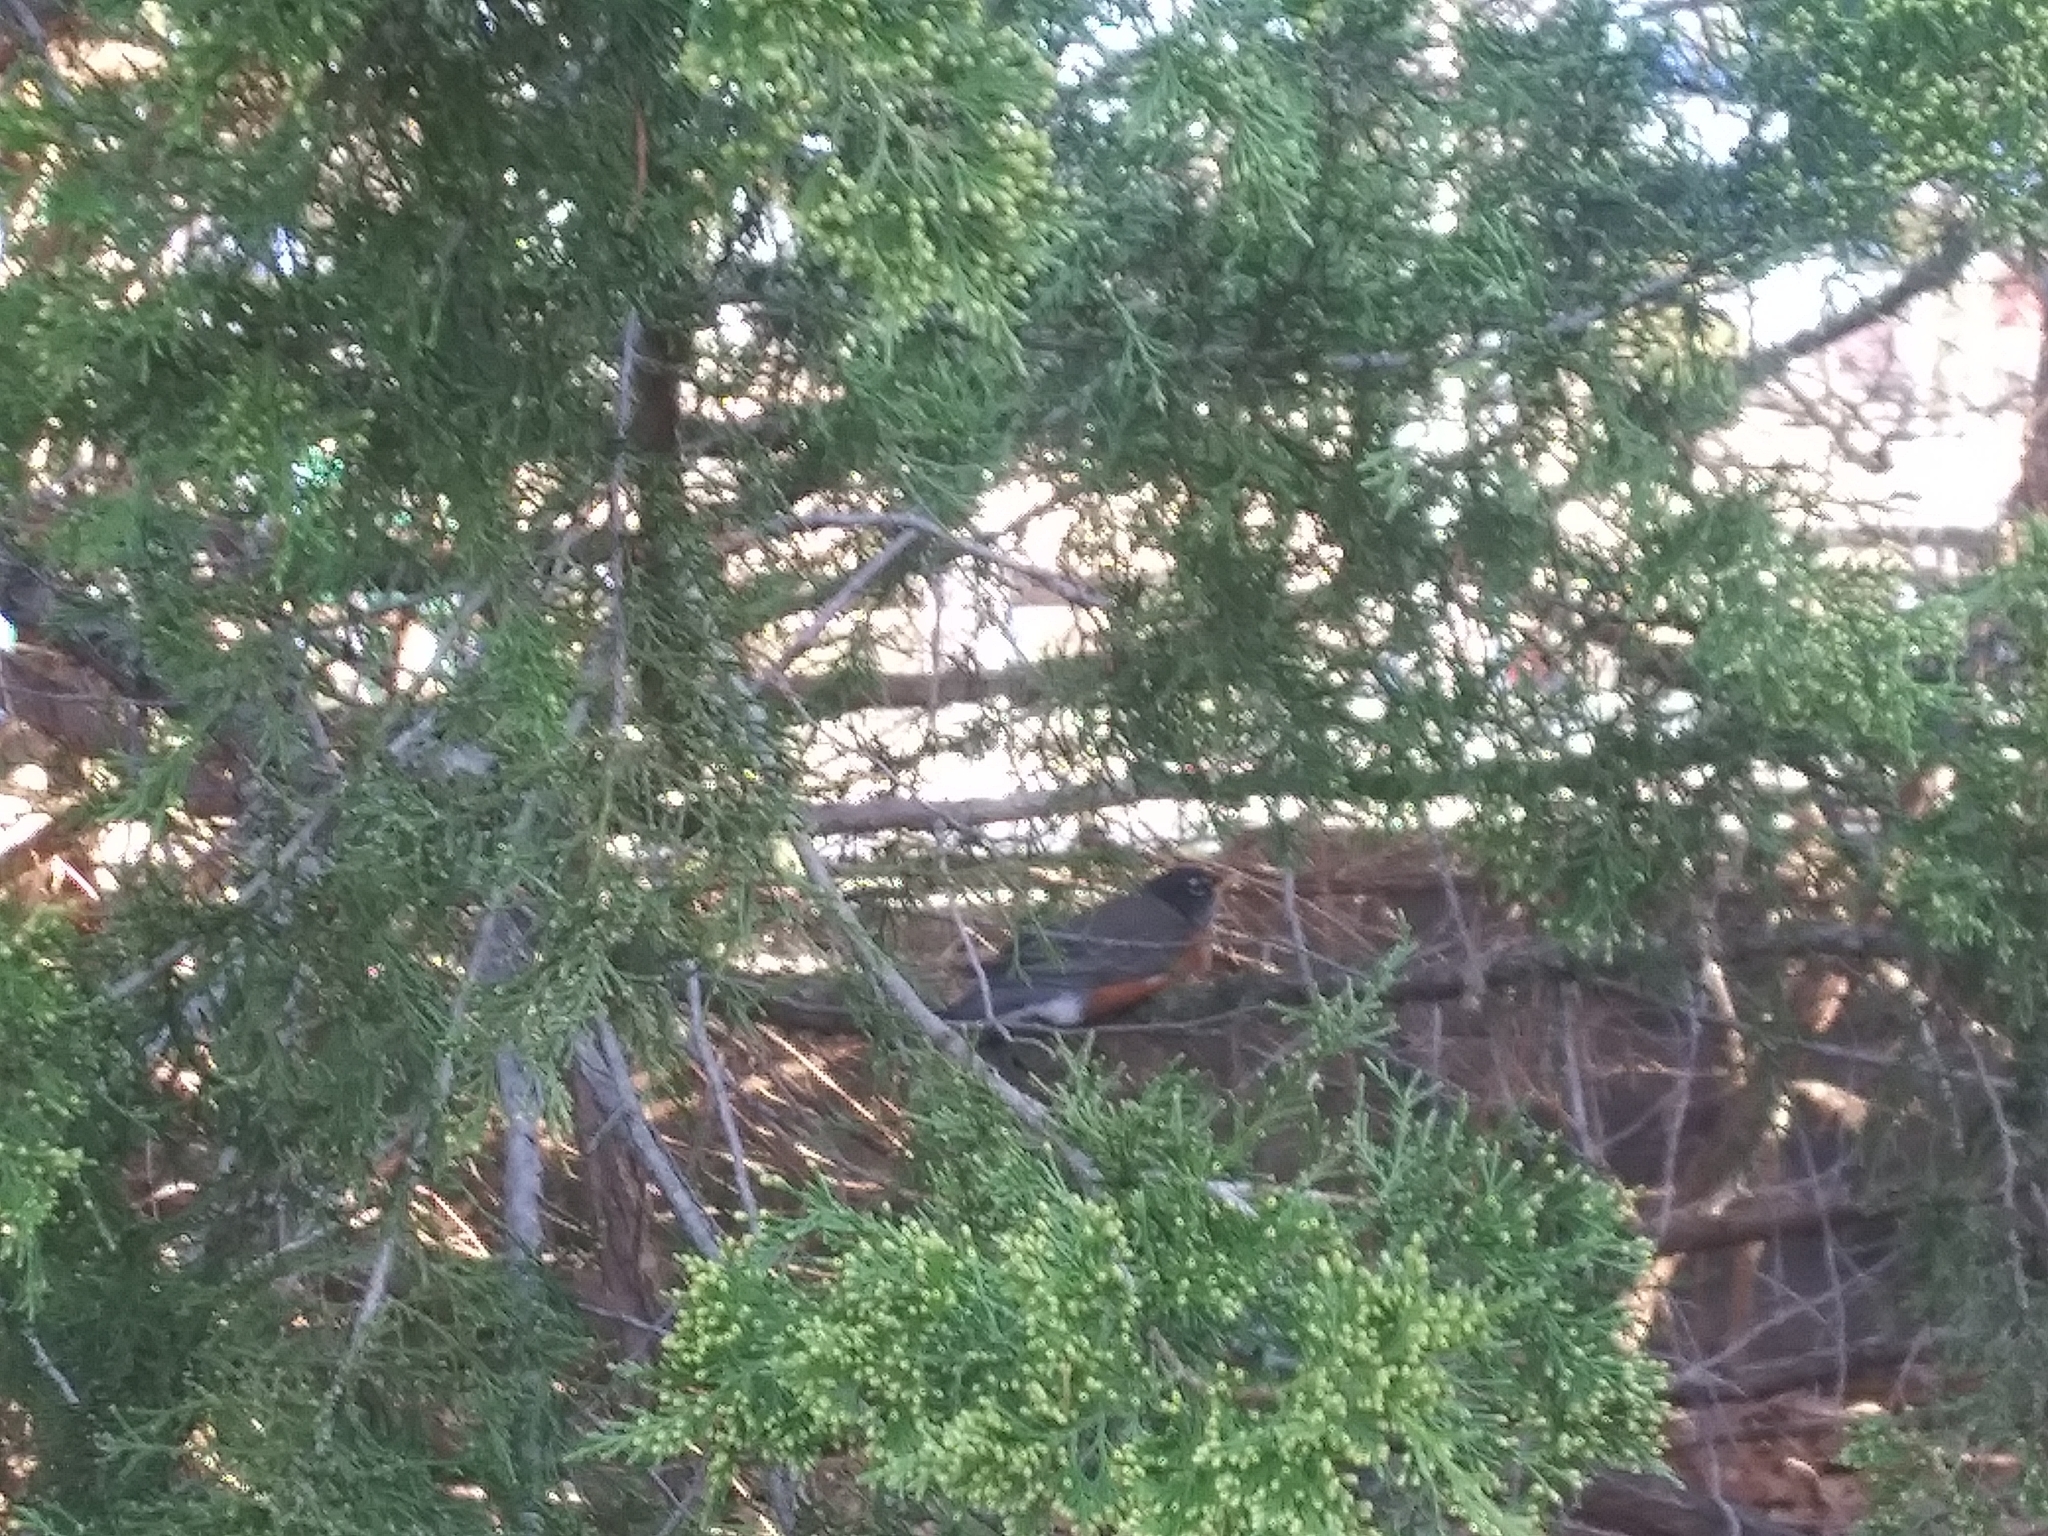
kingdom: Animalia
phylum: Chordata
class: Aves
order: Passeriformes
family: Turdidae
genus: Turdus
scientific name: Turdus migratorius
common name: American robin
